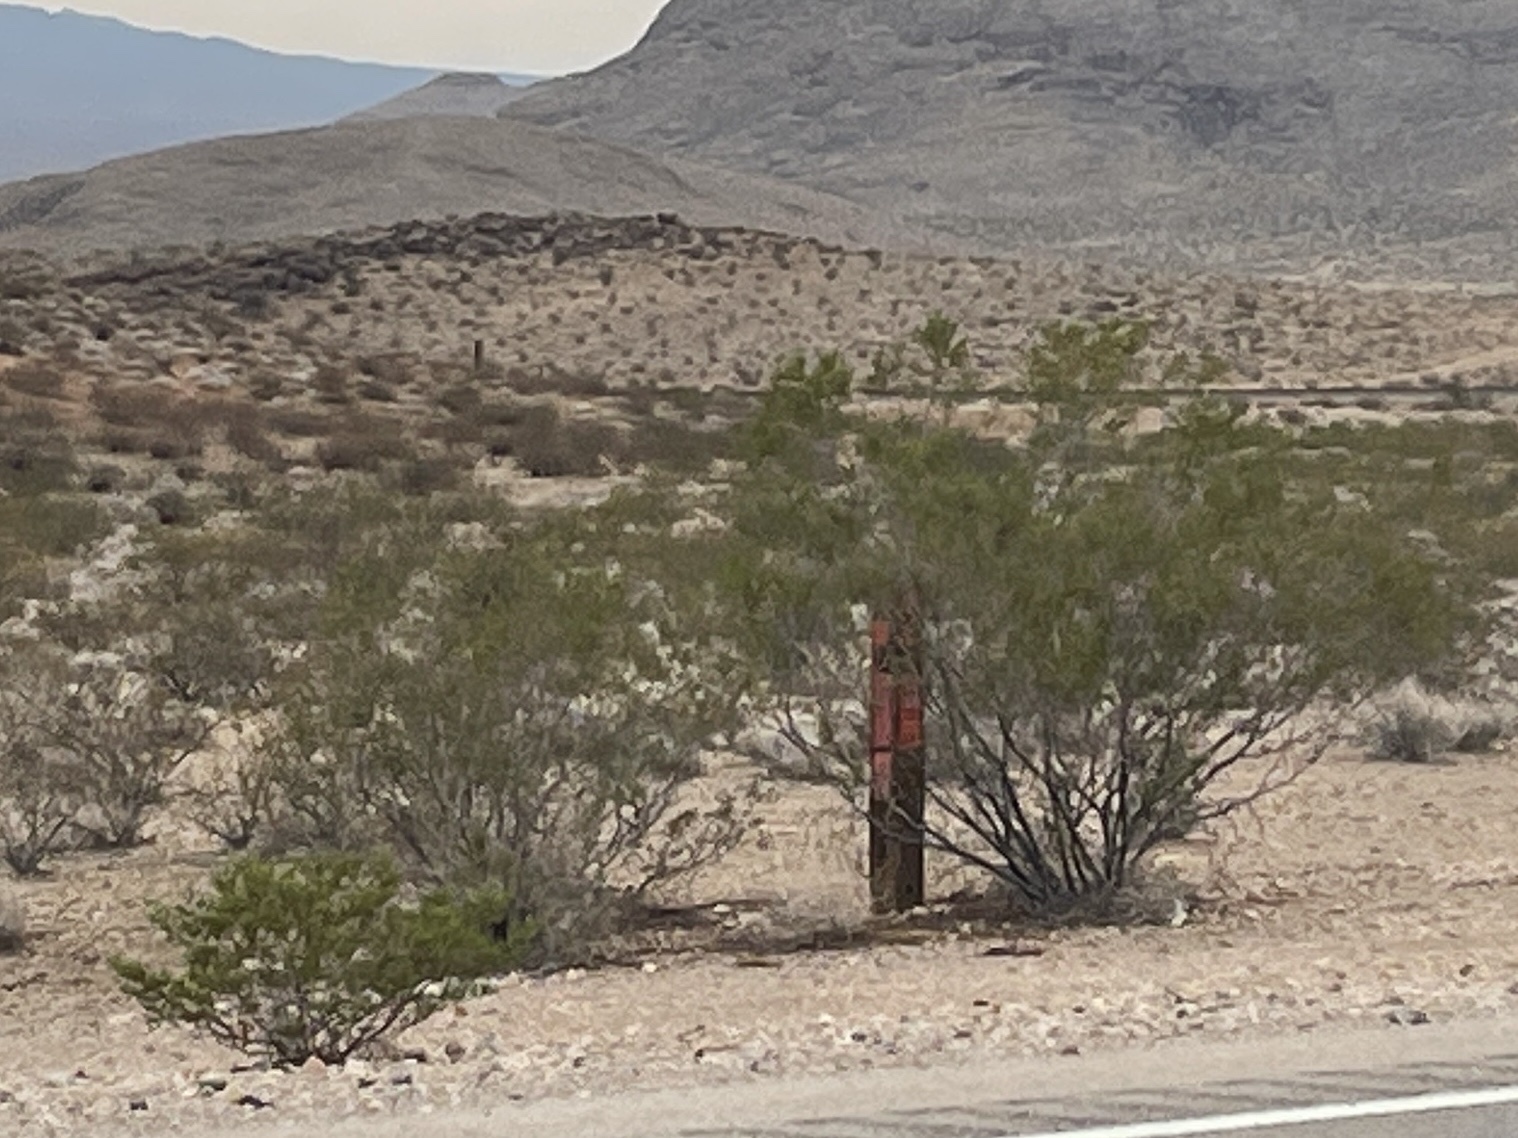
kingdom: Plantae
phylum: Tracheophyta
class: Magnoliopsida
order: Zygophyllales
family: Zygophyllaceae
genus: Larrea
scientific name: Larrea tridentata
